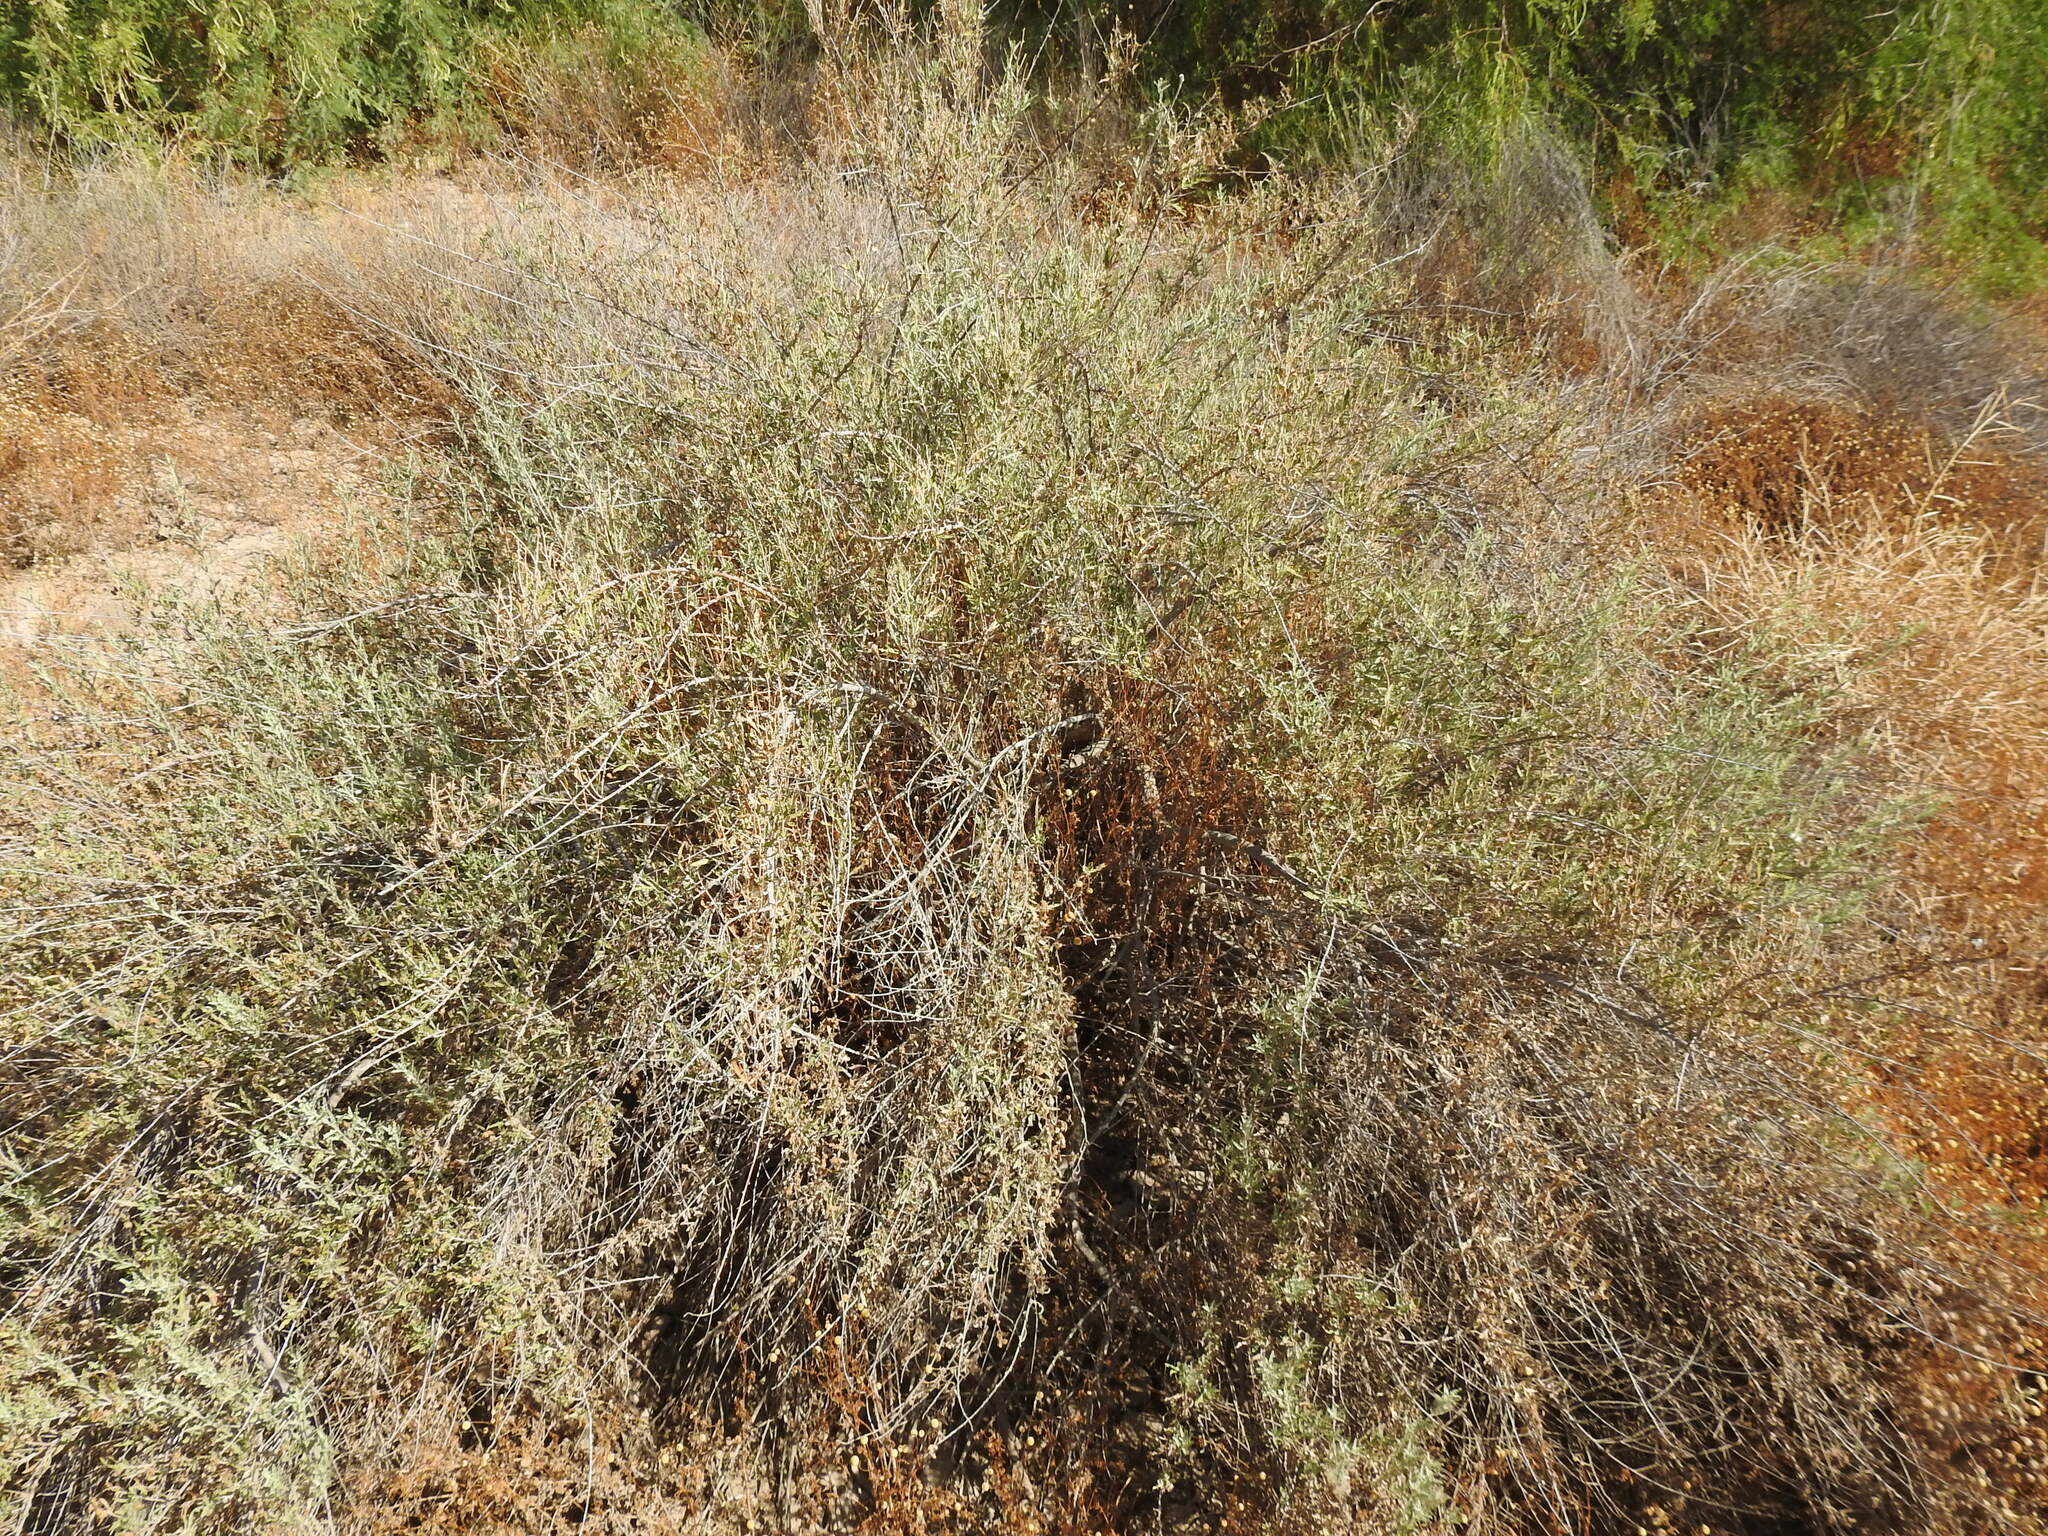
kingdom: Plantae
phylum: Tracheophyta
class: Magnoliopsida
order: Asterales
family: Asteraceae
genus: Ambrosia
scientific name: Ambrosia eriocentra
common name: Woolly bur-sage
